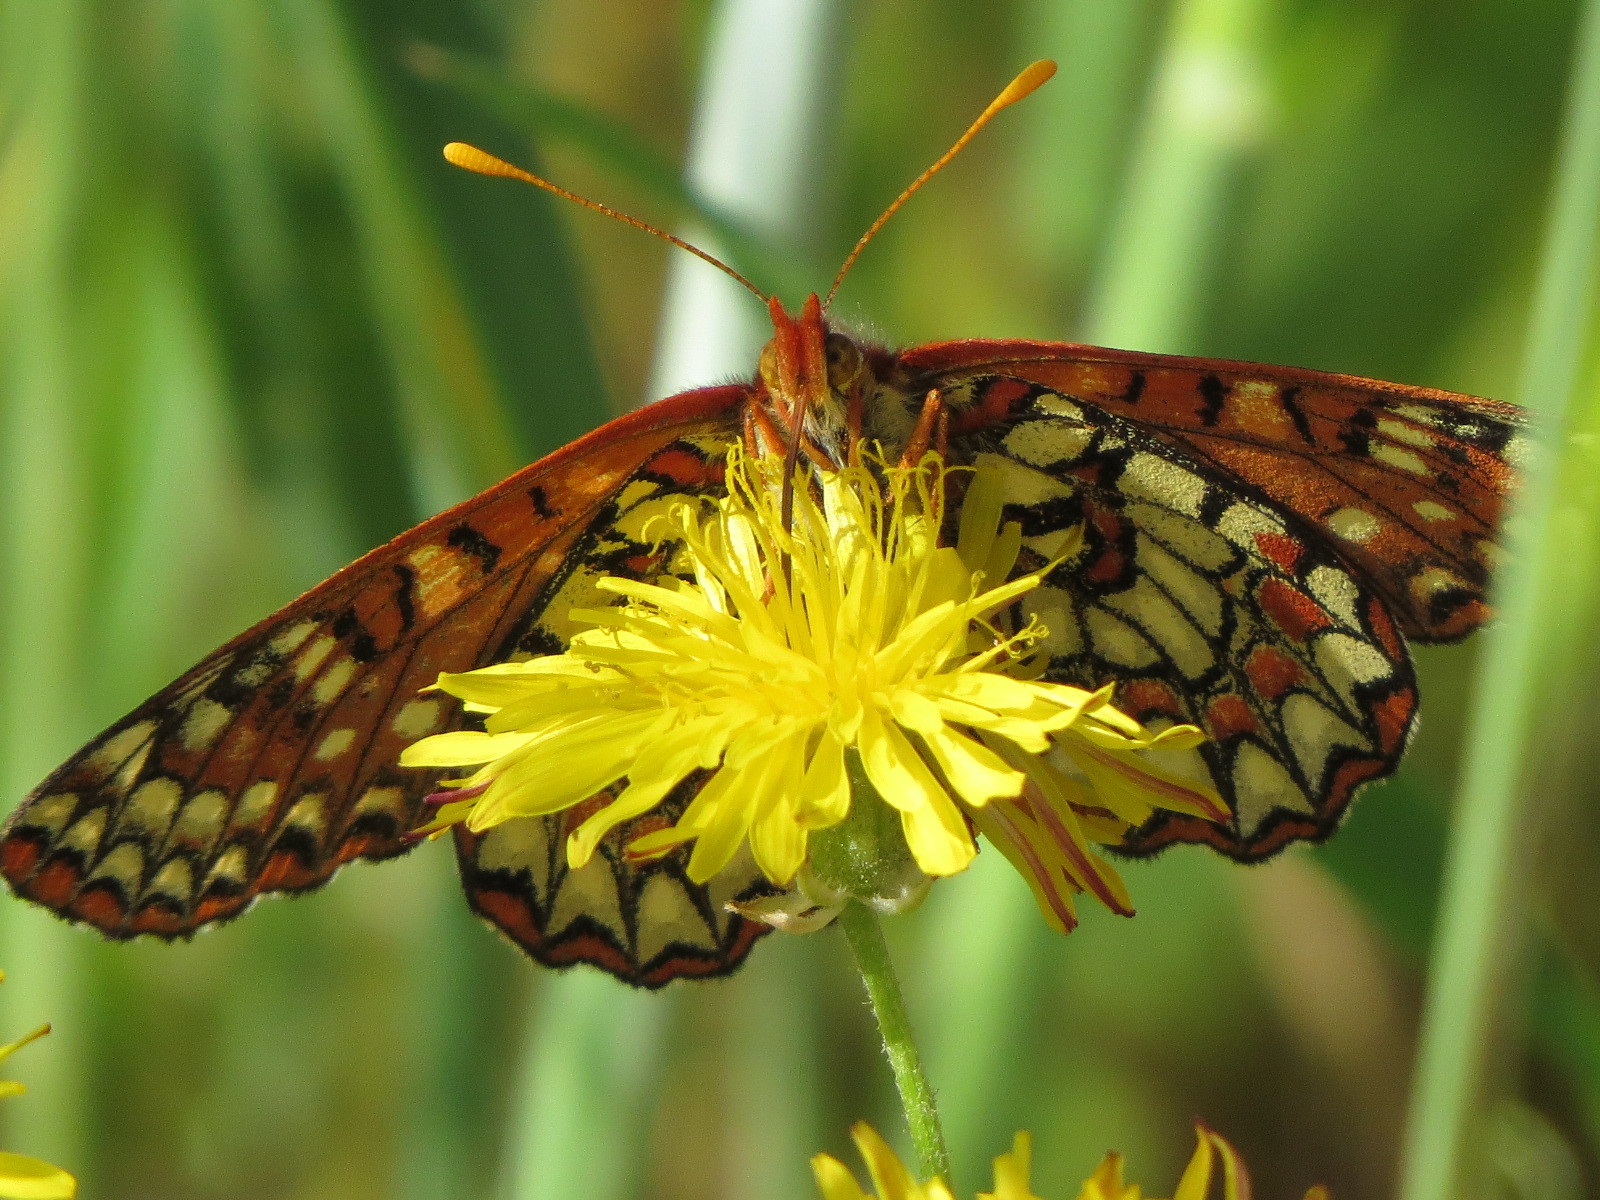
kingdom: Animalia
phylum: Arthropoda
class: Insecta
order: Lepidoptera
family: Nymphalidae
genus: Occidryas
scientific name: Occidryas chalcedona
